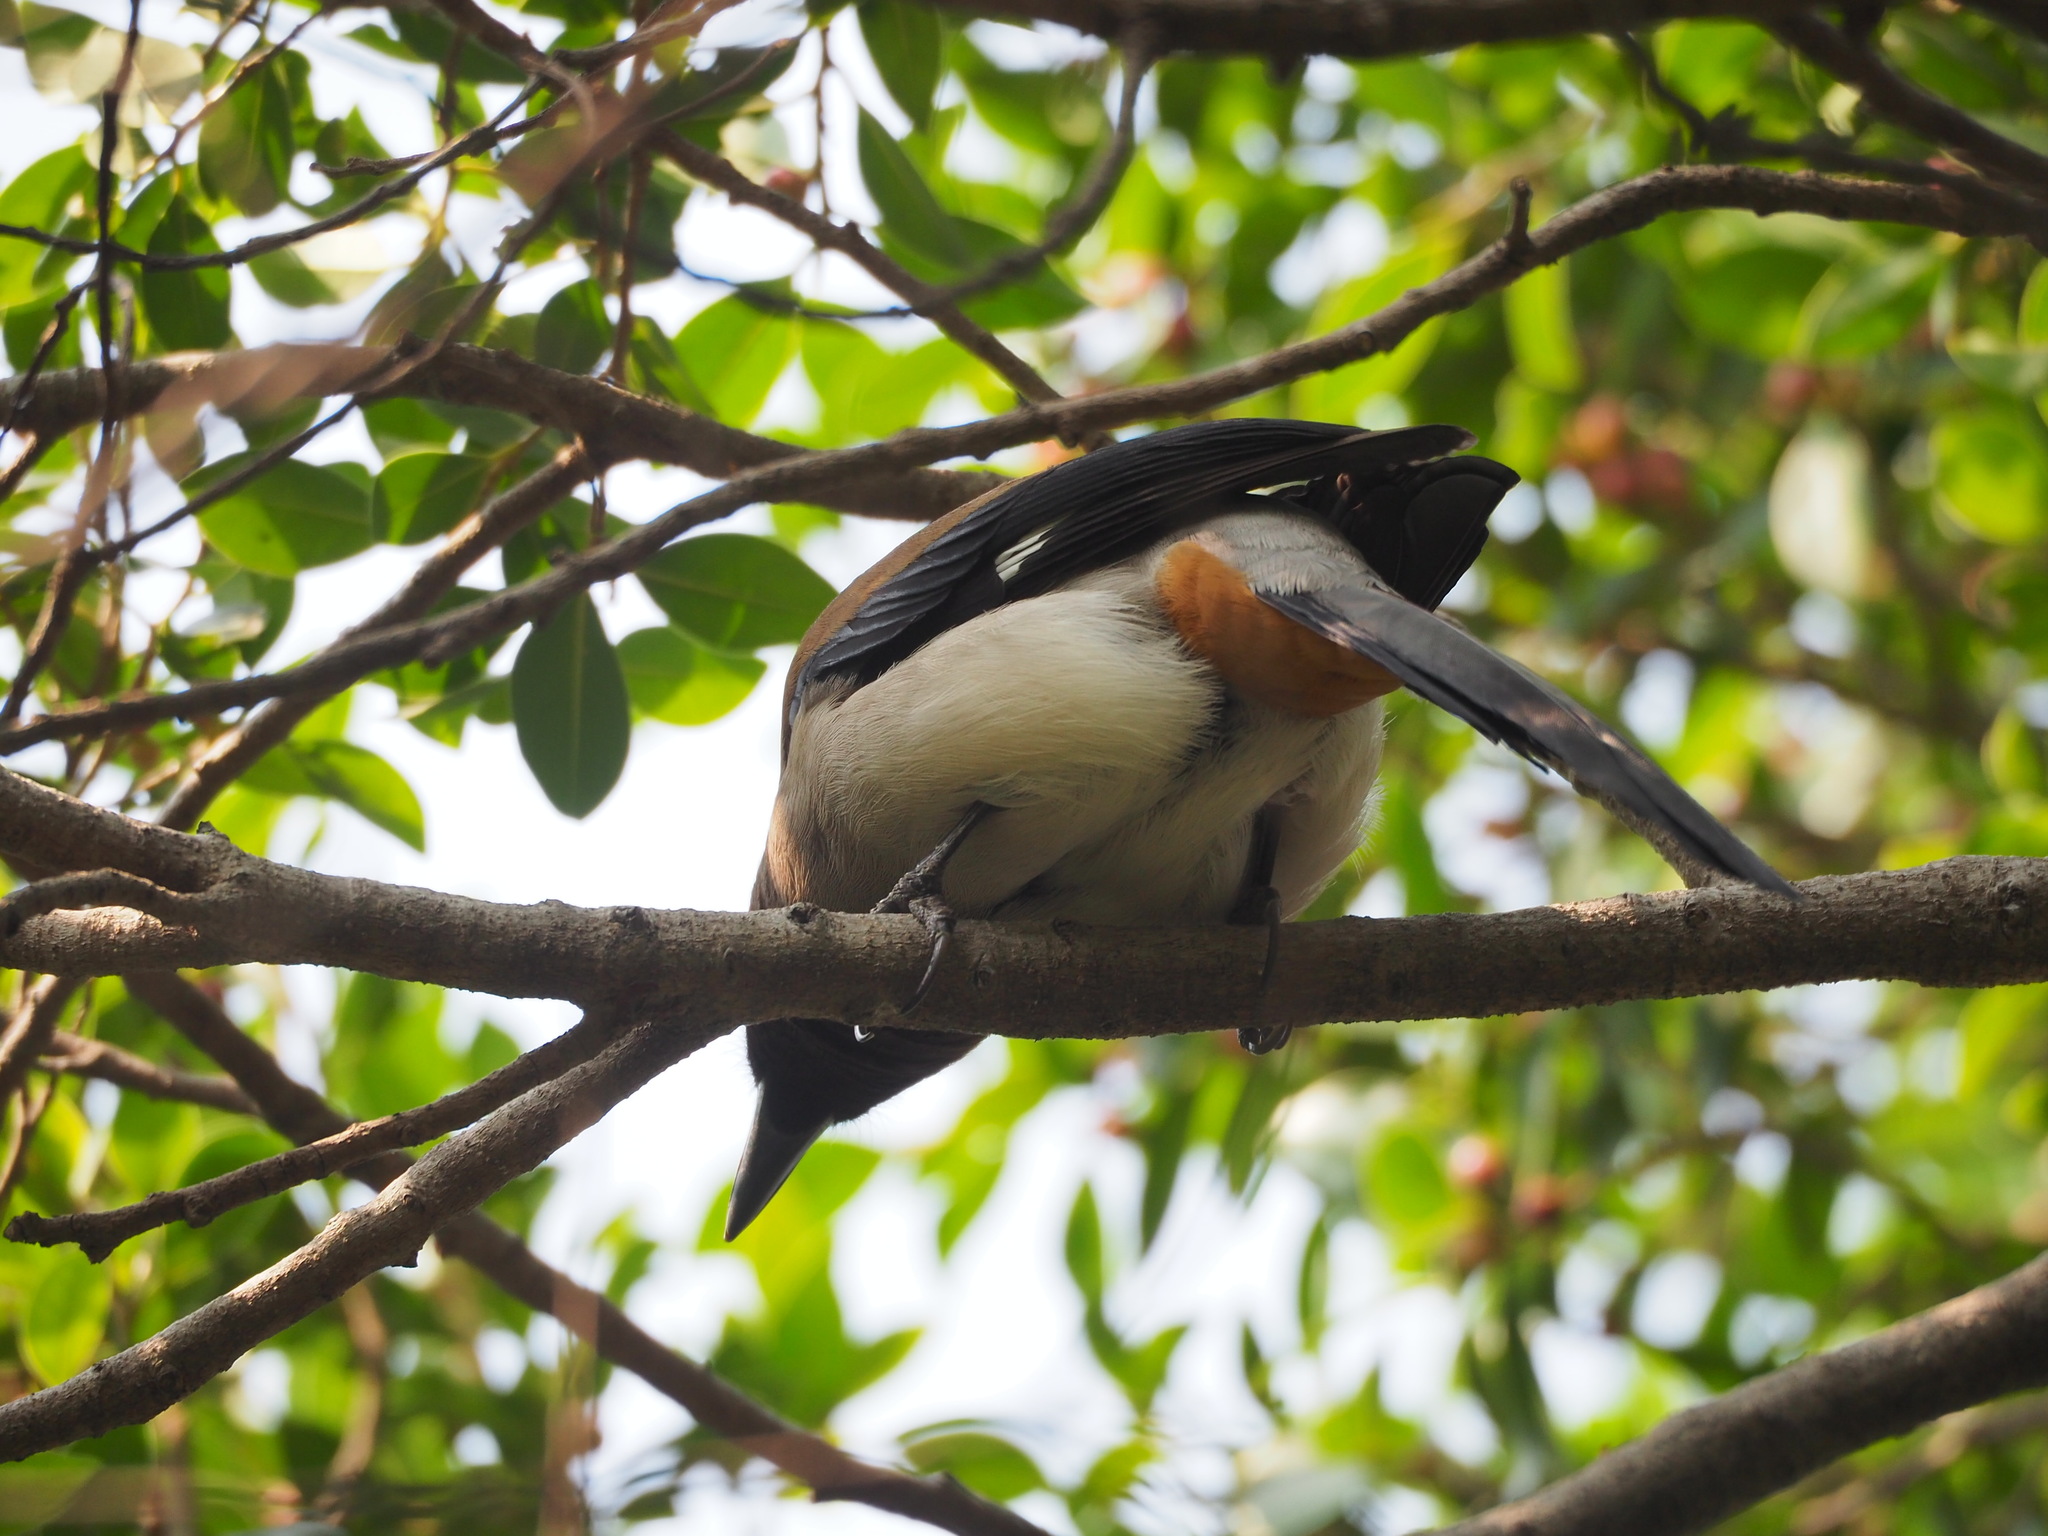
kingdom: Animalia
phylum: Chordata
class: Aves
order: Passeriformes
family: Corvidae
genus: Dendrocitta
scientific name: Dendrocitta formosae
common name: Grey treepie
